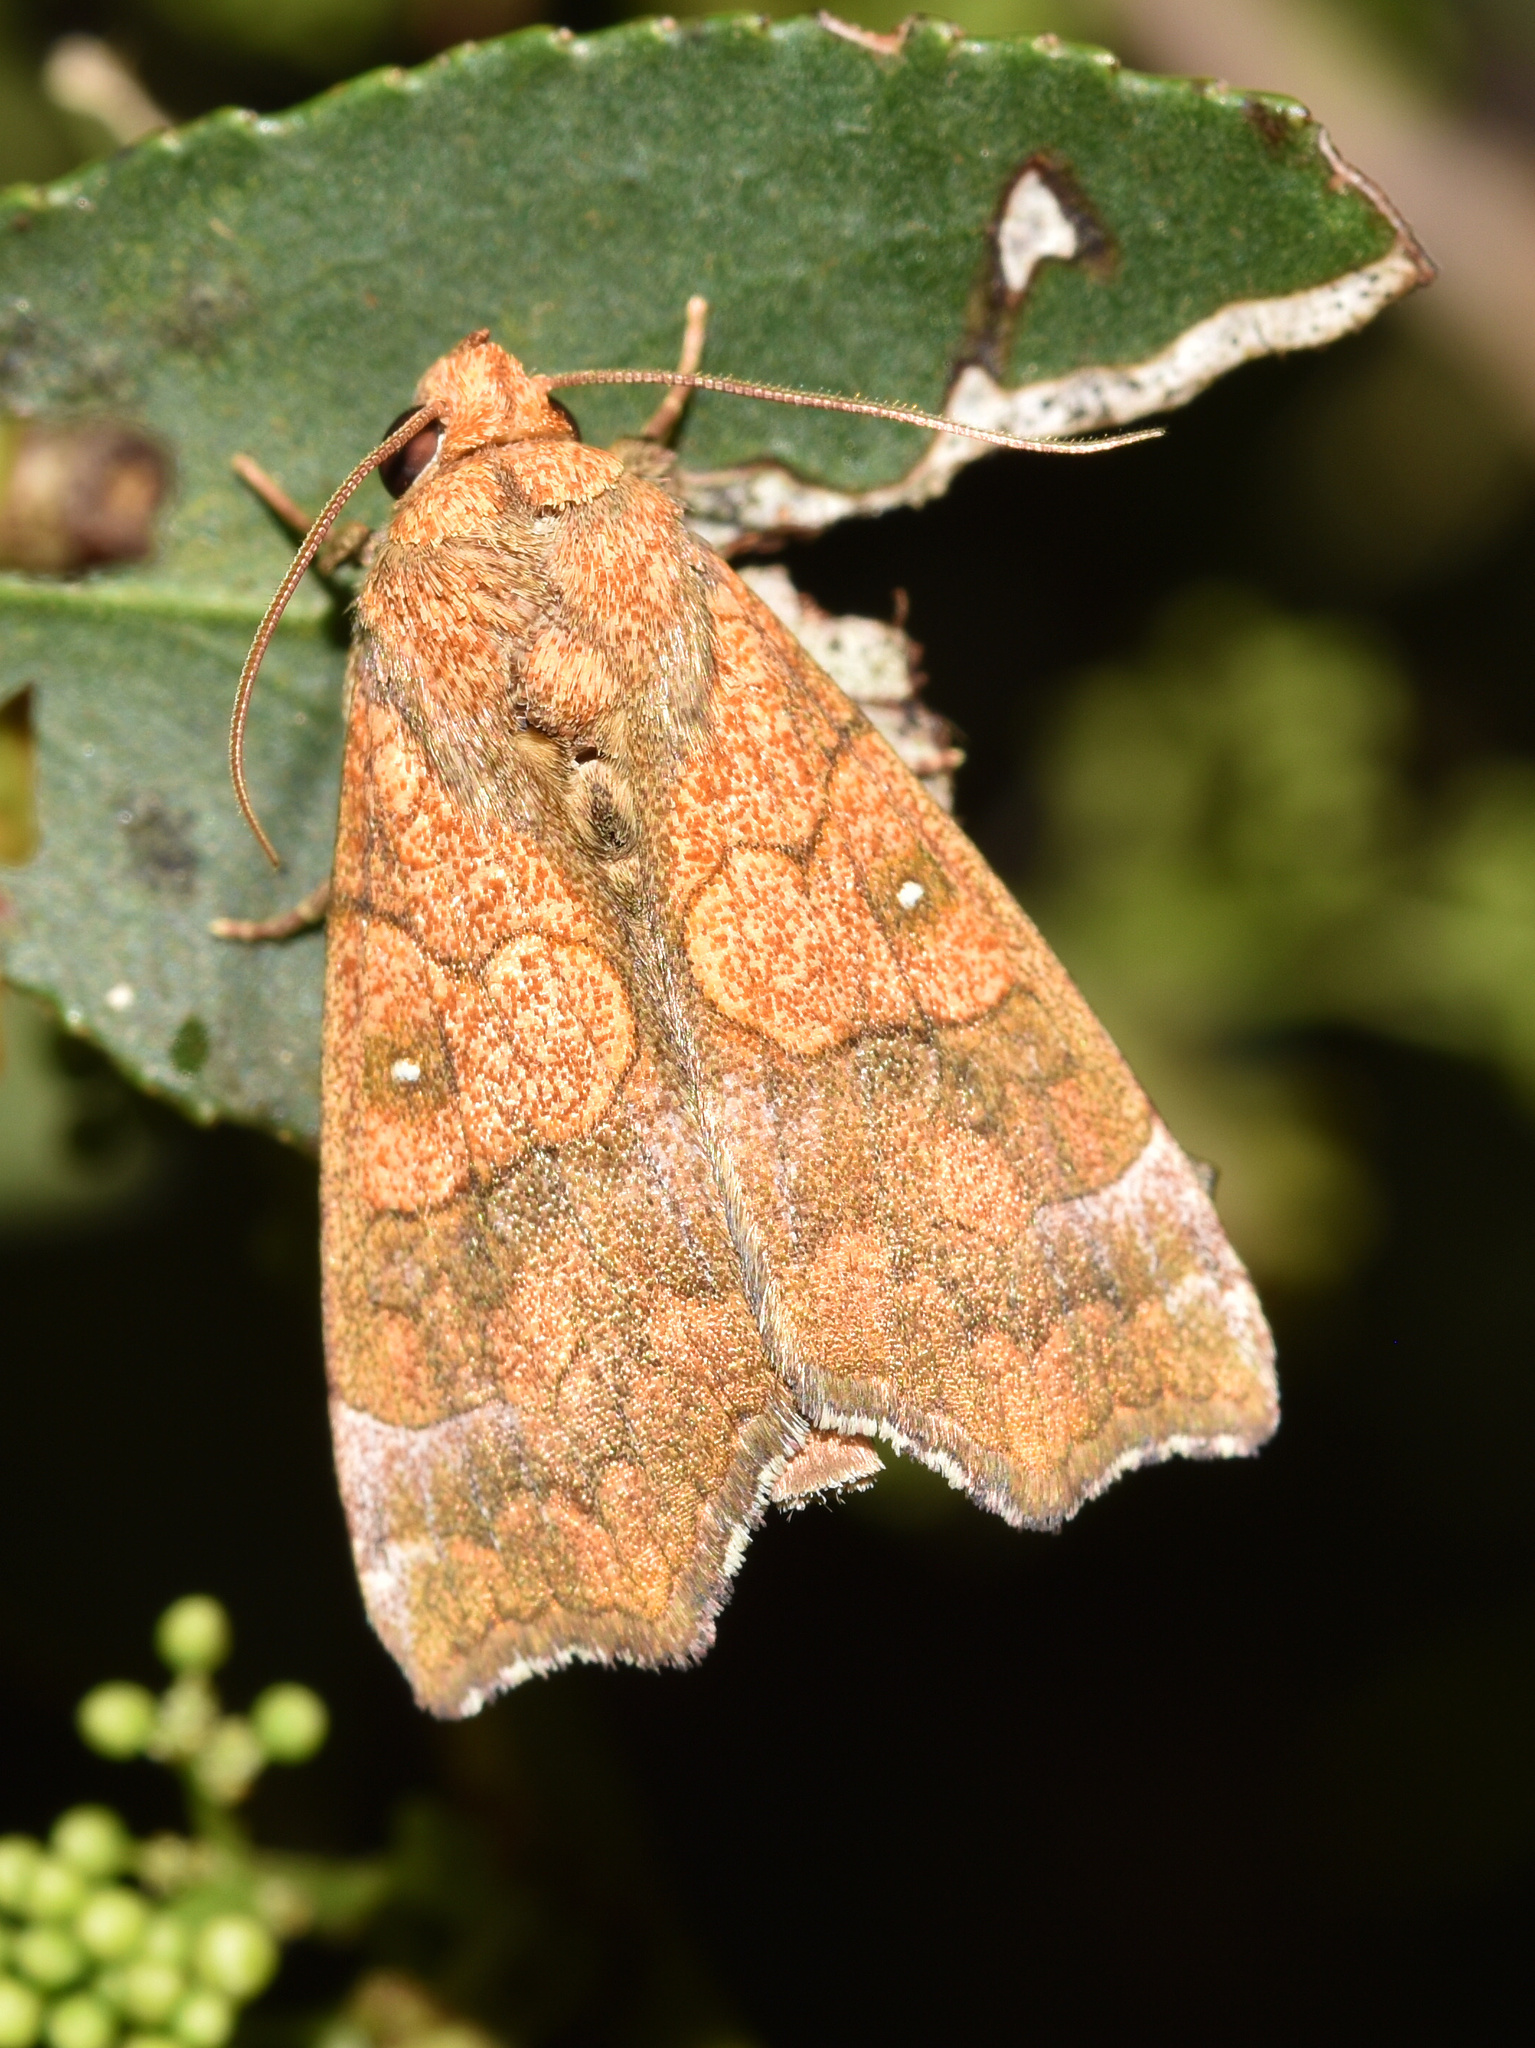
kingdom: Animalia
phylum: Arthropoda
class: Insecta
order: Lepidoptera
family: Erebidae
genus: Anomis
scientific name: Anomis flava
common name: Moth
